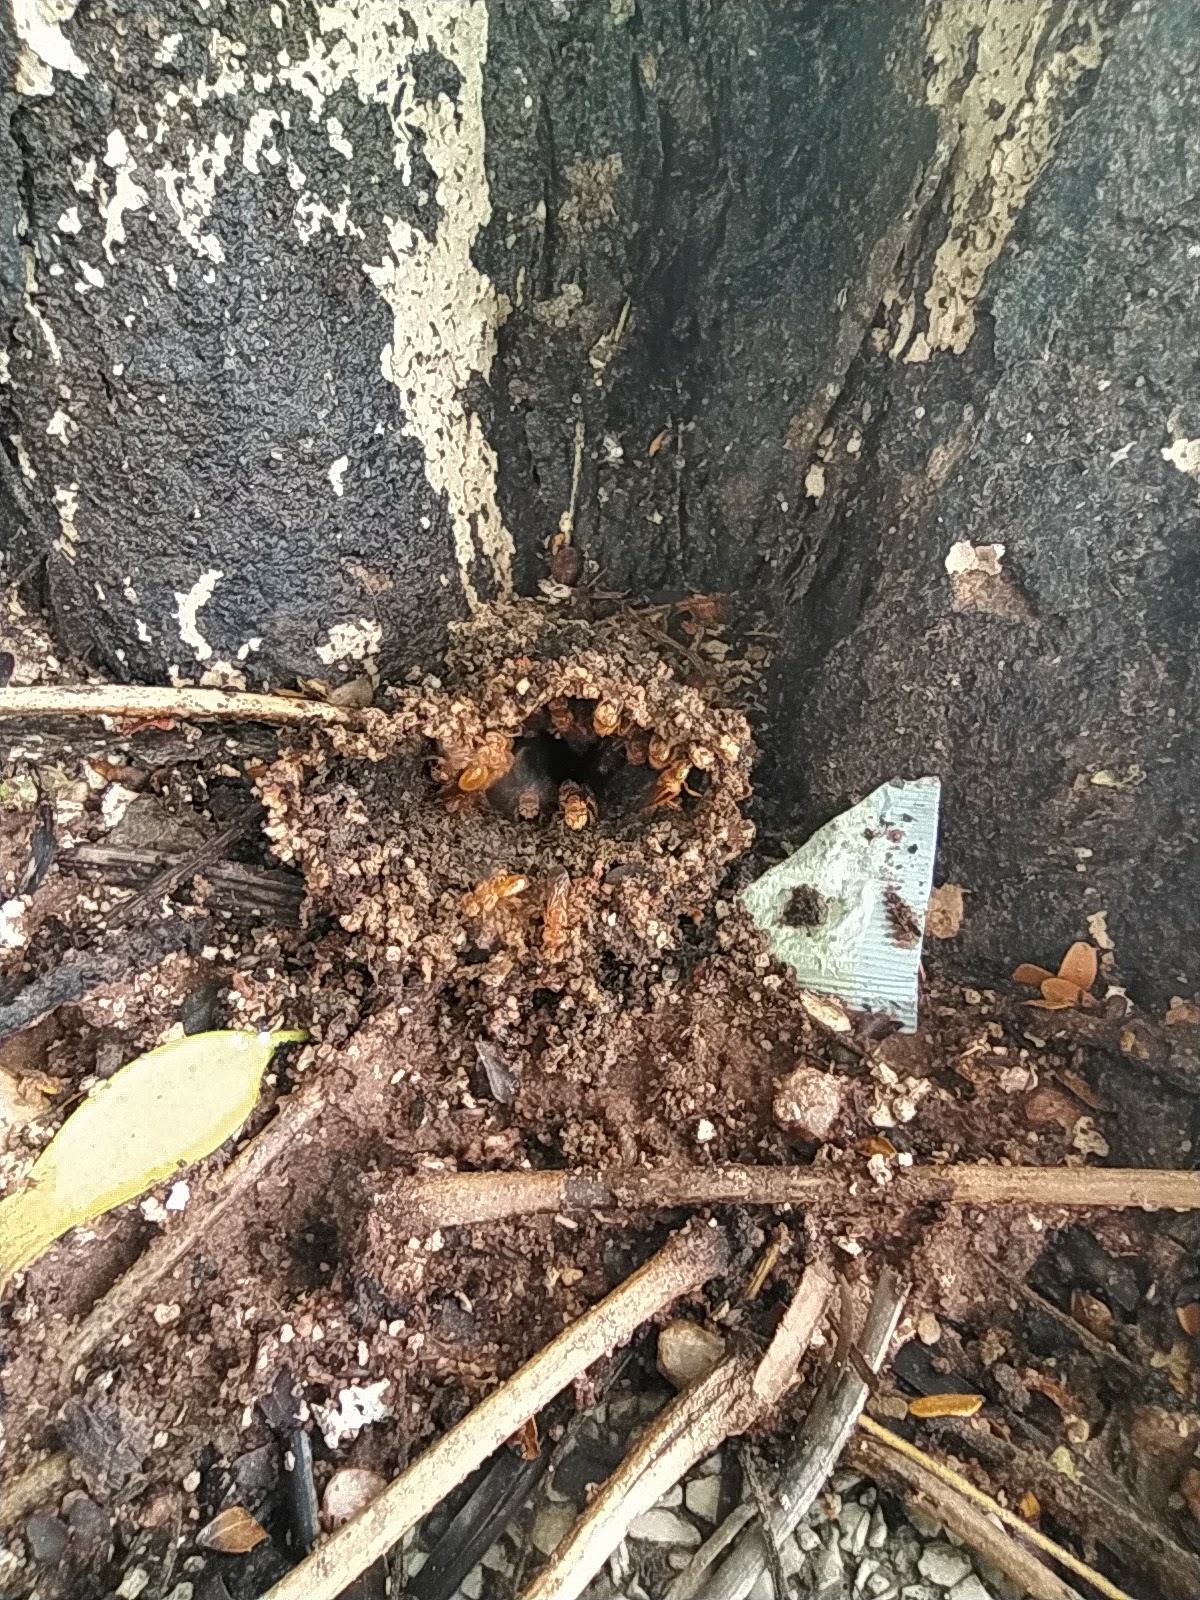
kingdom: Animalia
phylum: Arthropoda
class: Insecta
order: Hymenoptera
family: Apidae
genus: Trigona
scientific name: Trigona pallens
